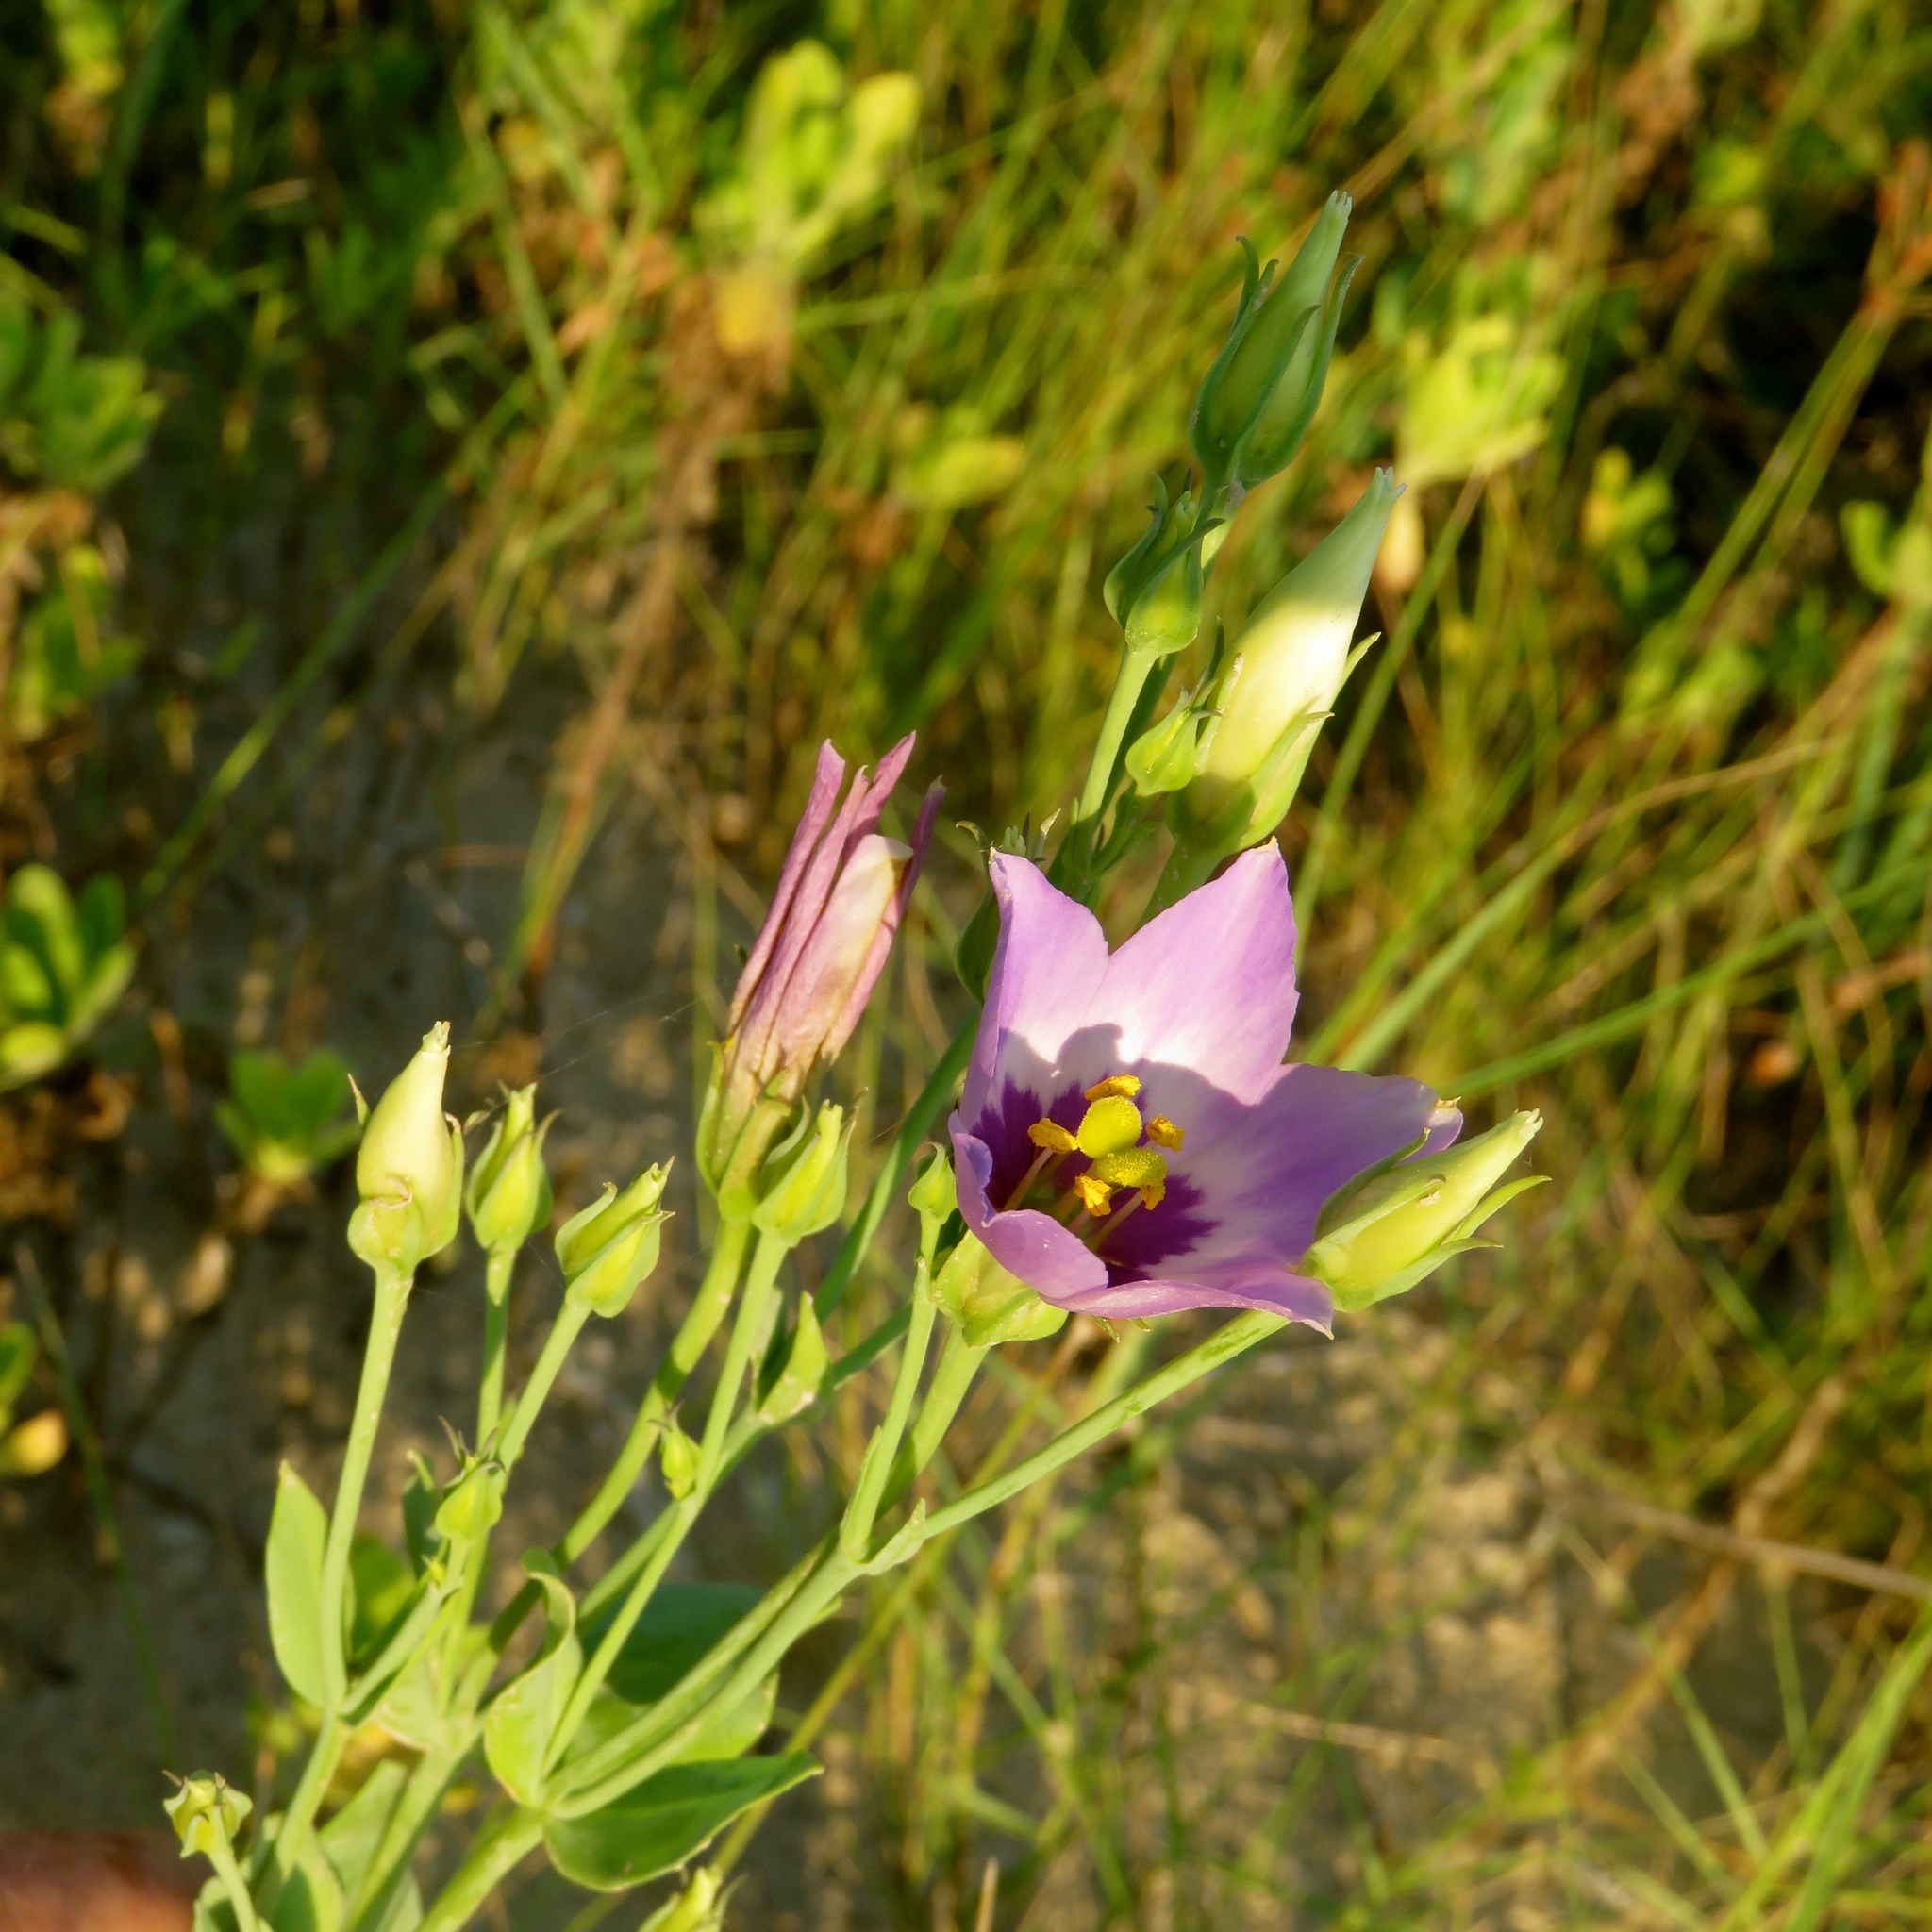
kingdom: Plantae
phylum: Tracheophyta
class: Magnoliopsida
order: Gentianales
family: Gentianaceae
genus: Eustoma
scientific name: Eustoma exaltatum
